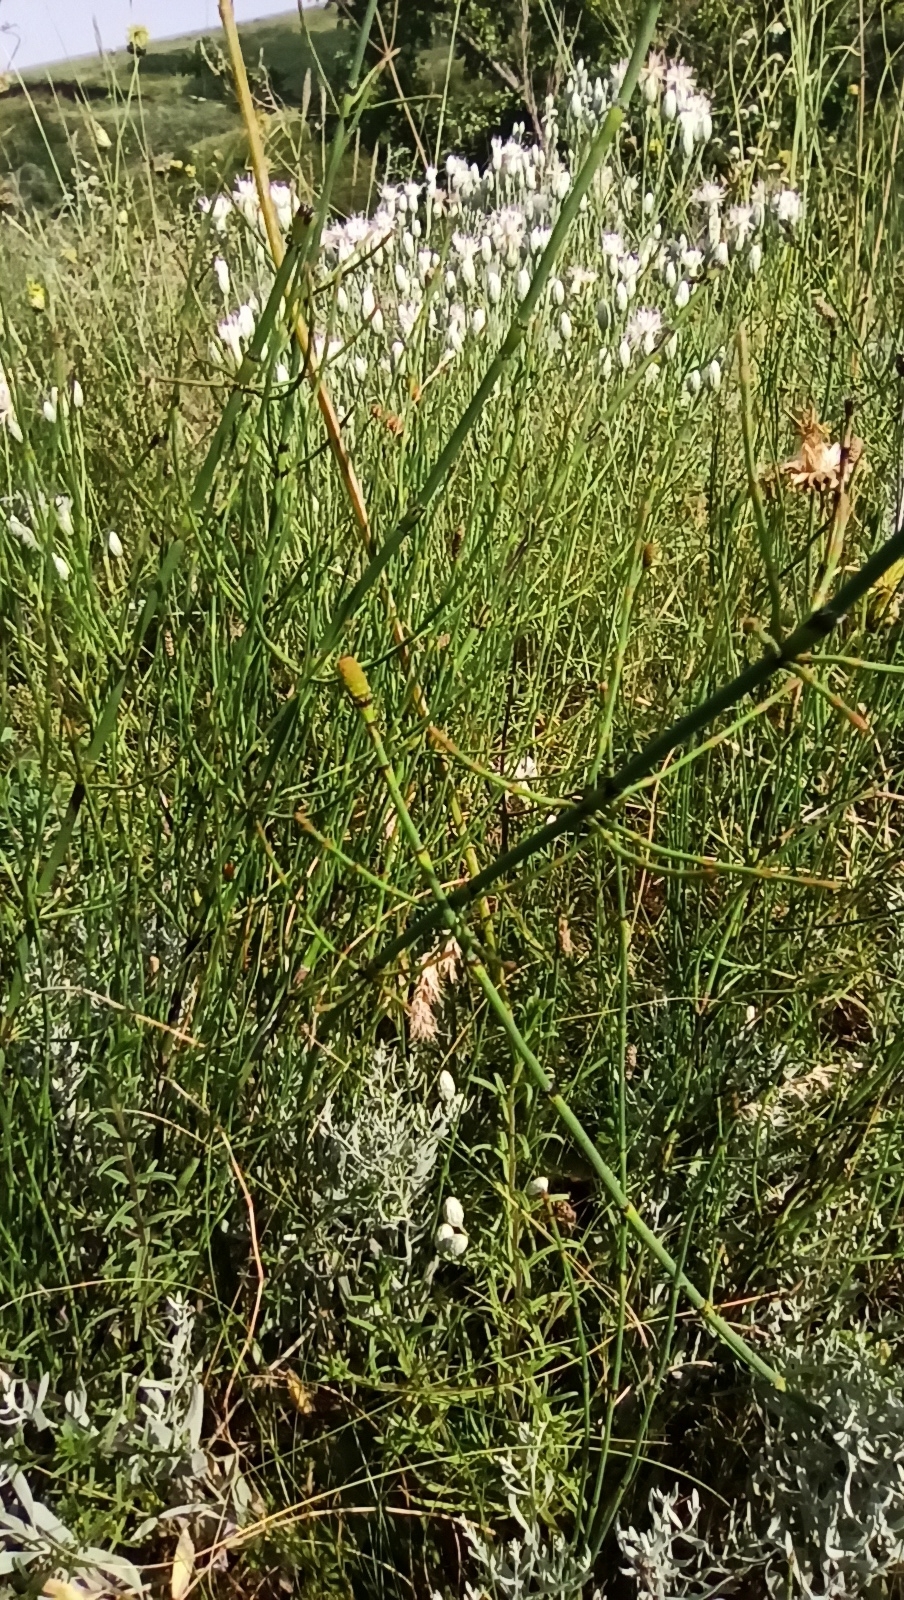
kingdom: Plantae
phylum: Tracheophyta
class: Polypodiopsida
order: Equisetales
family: Equisetaceae
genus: Equisetum
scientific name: Equisetum ramosissimum
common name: Branched horsetail
